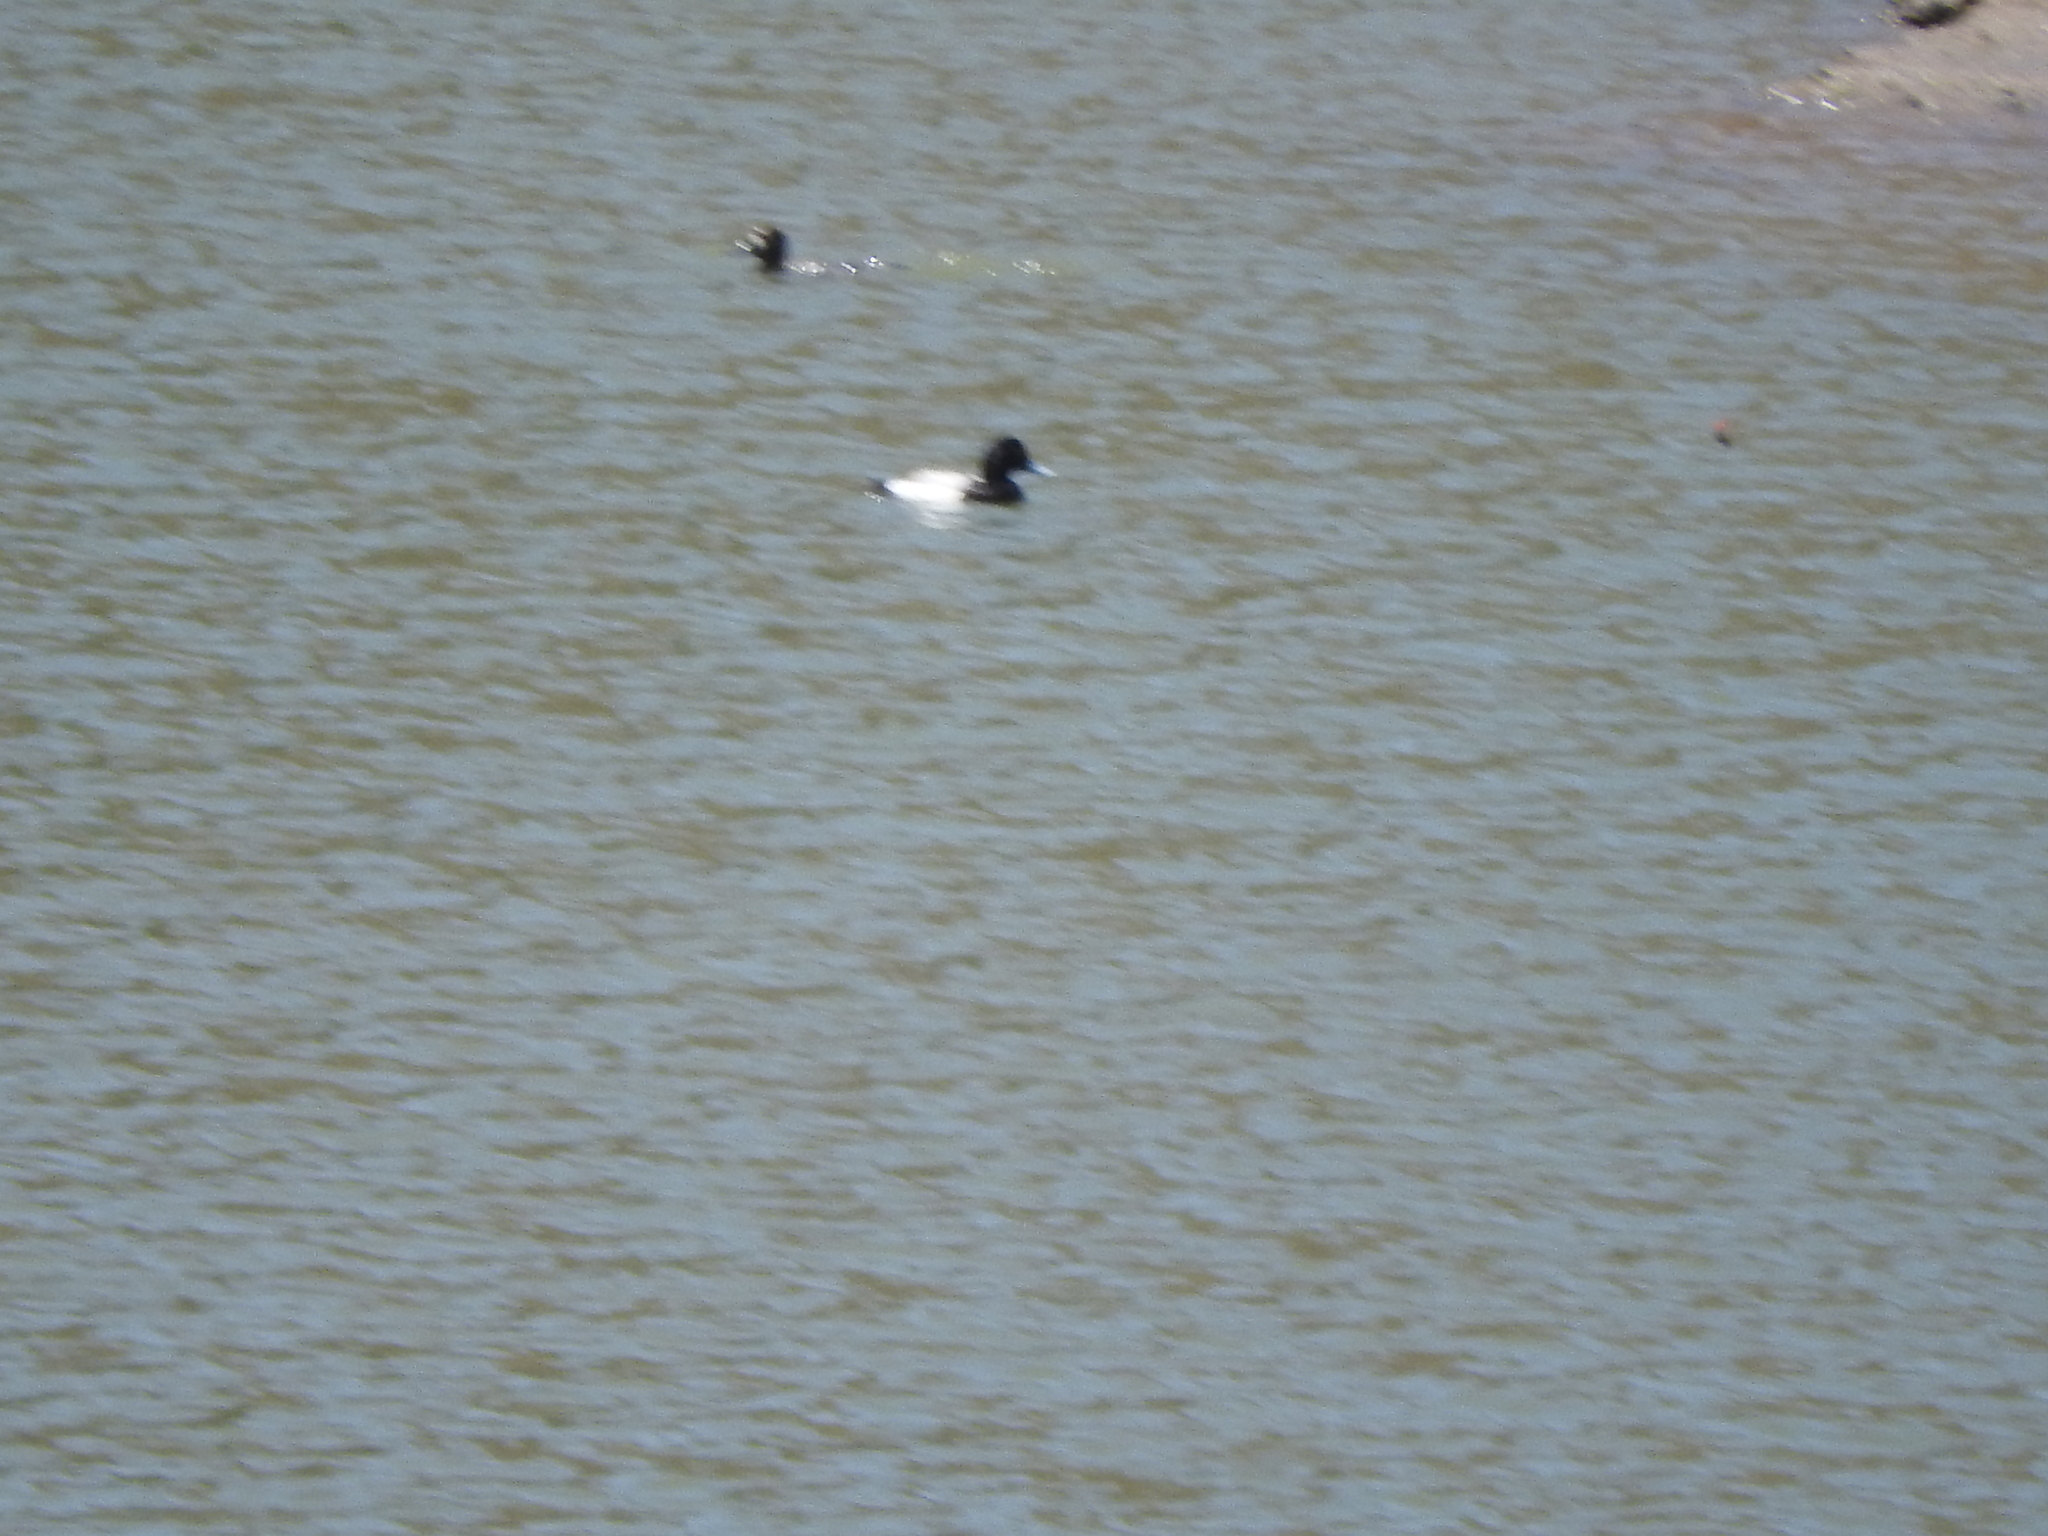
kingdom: Animalia
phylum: Chordata
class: Aves
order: Anseriformes
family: Anatidae
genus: Aythya
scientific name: Aythya affinis
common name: Lesser scaup
